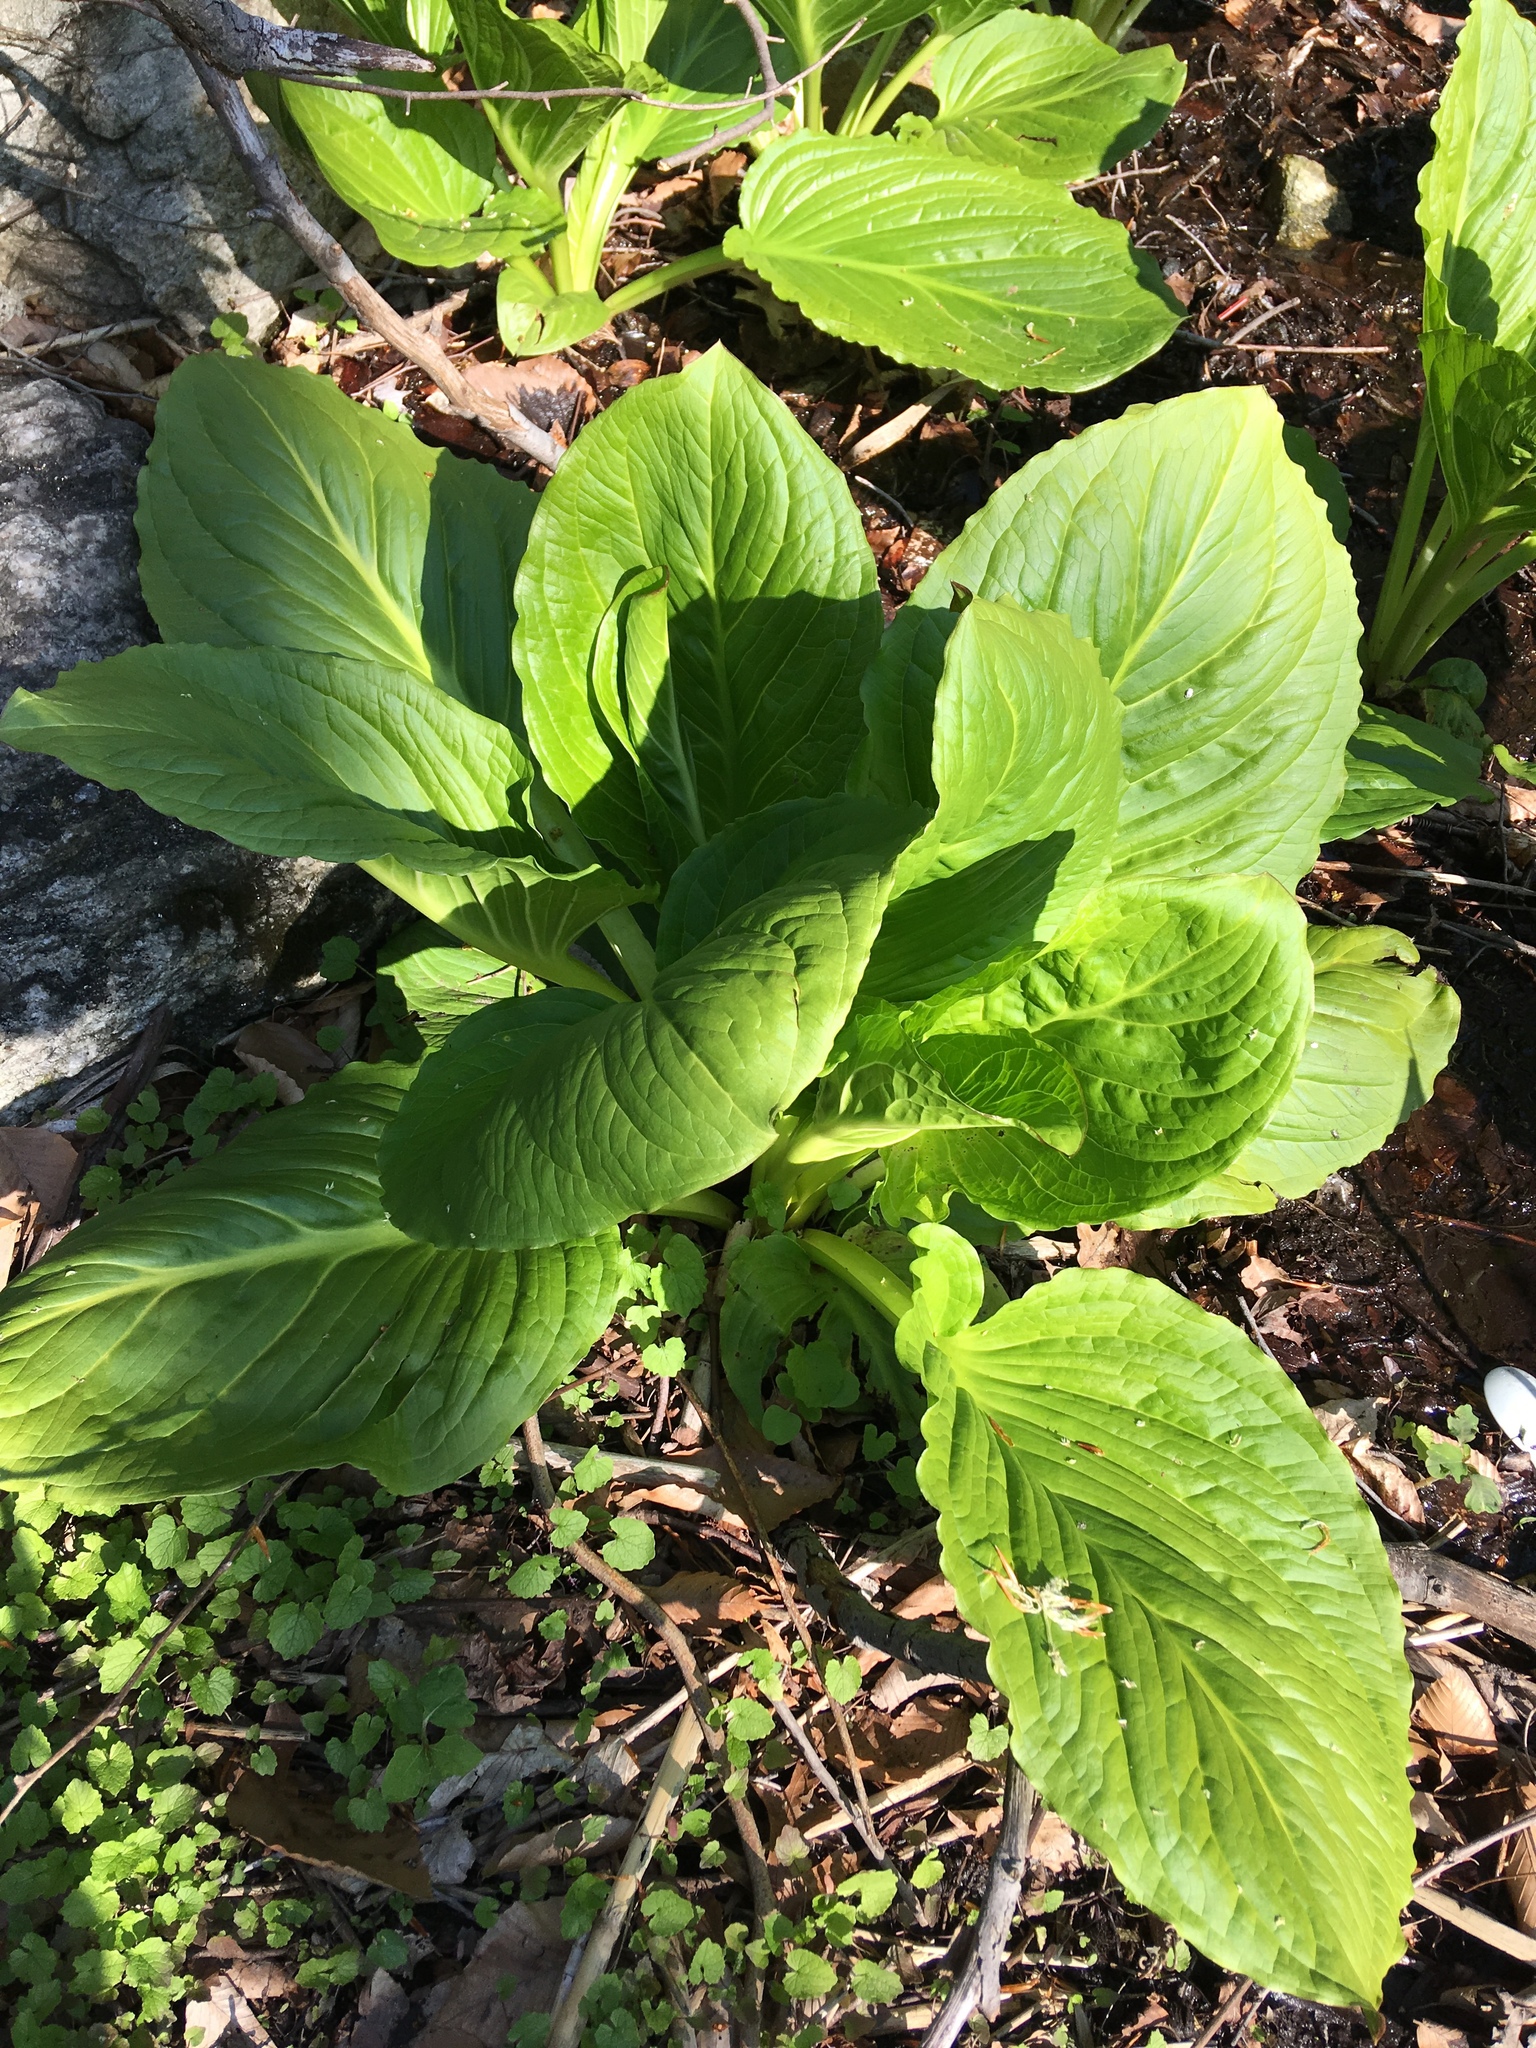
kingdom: Plantae
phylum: Tracheophyta
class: Liliopsida
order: Alismatales
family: Araceae
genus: Symplocarpus
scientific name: Symplocarpus foetidus
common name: Eastern skunk cabbage
